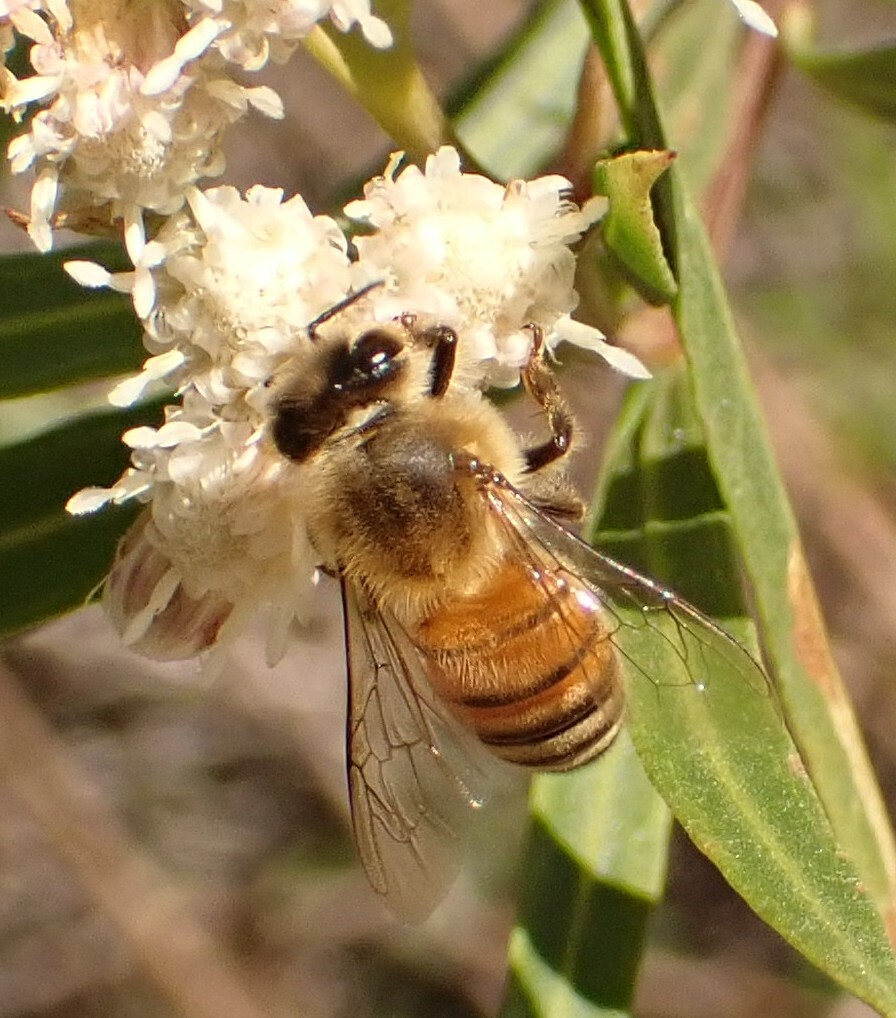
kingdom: Animalia
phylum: Arthropoda
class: Insecta
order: Hymenoptera
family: Apidae
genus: Apis
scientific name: Apis mellifera
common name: Honey bee
